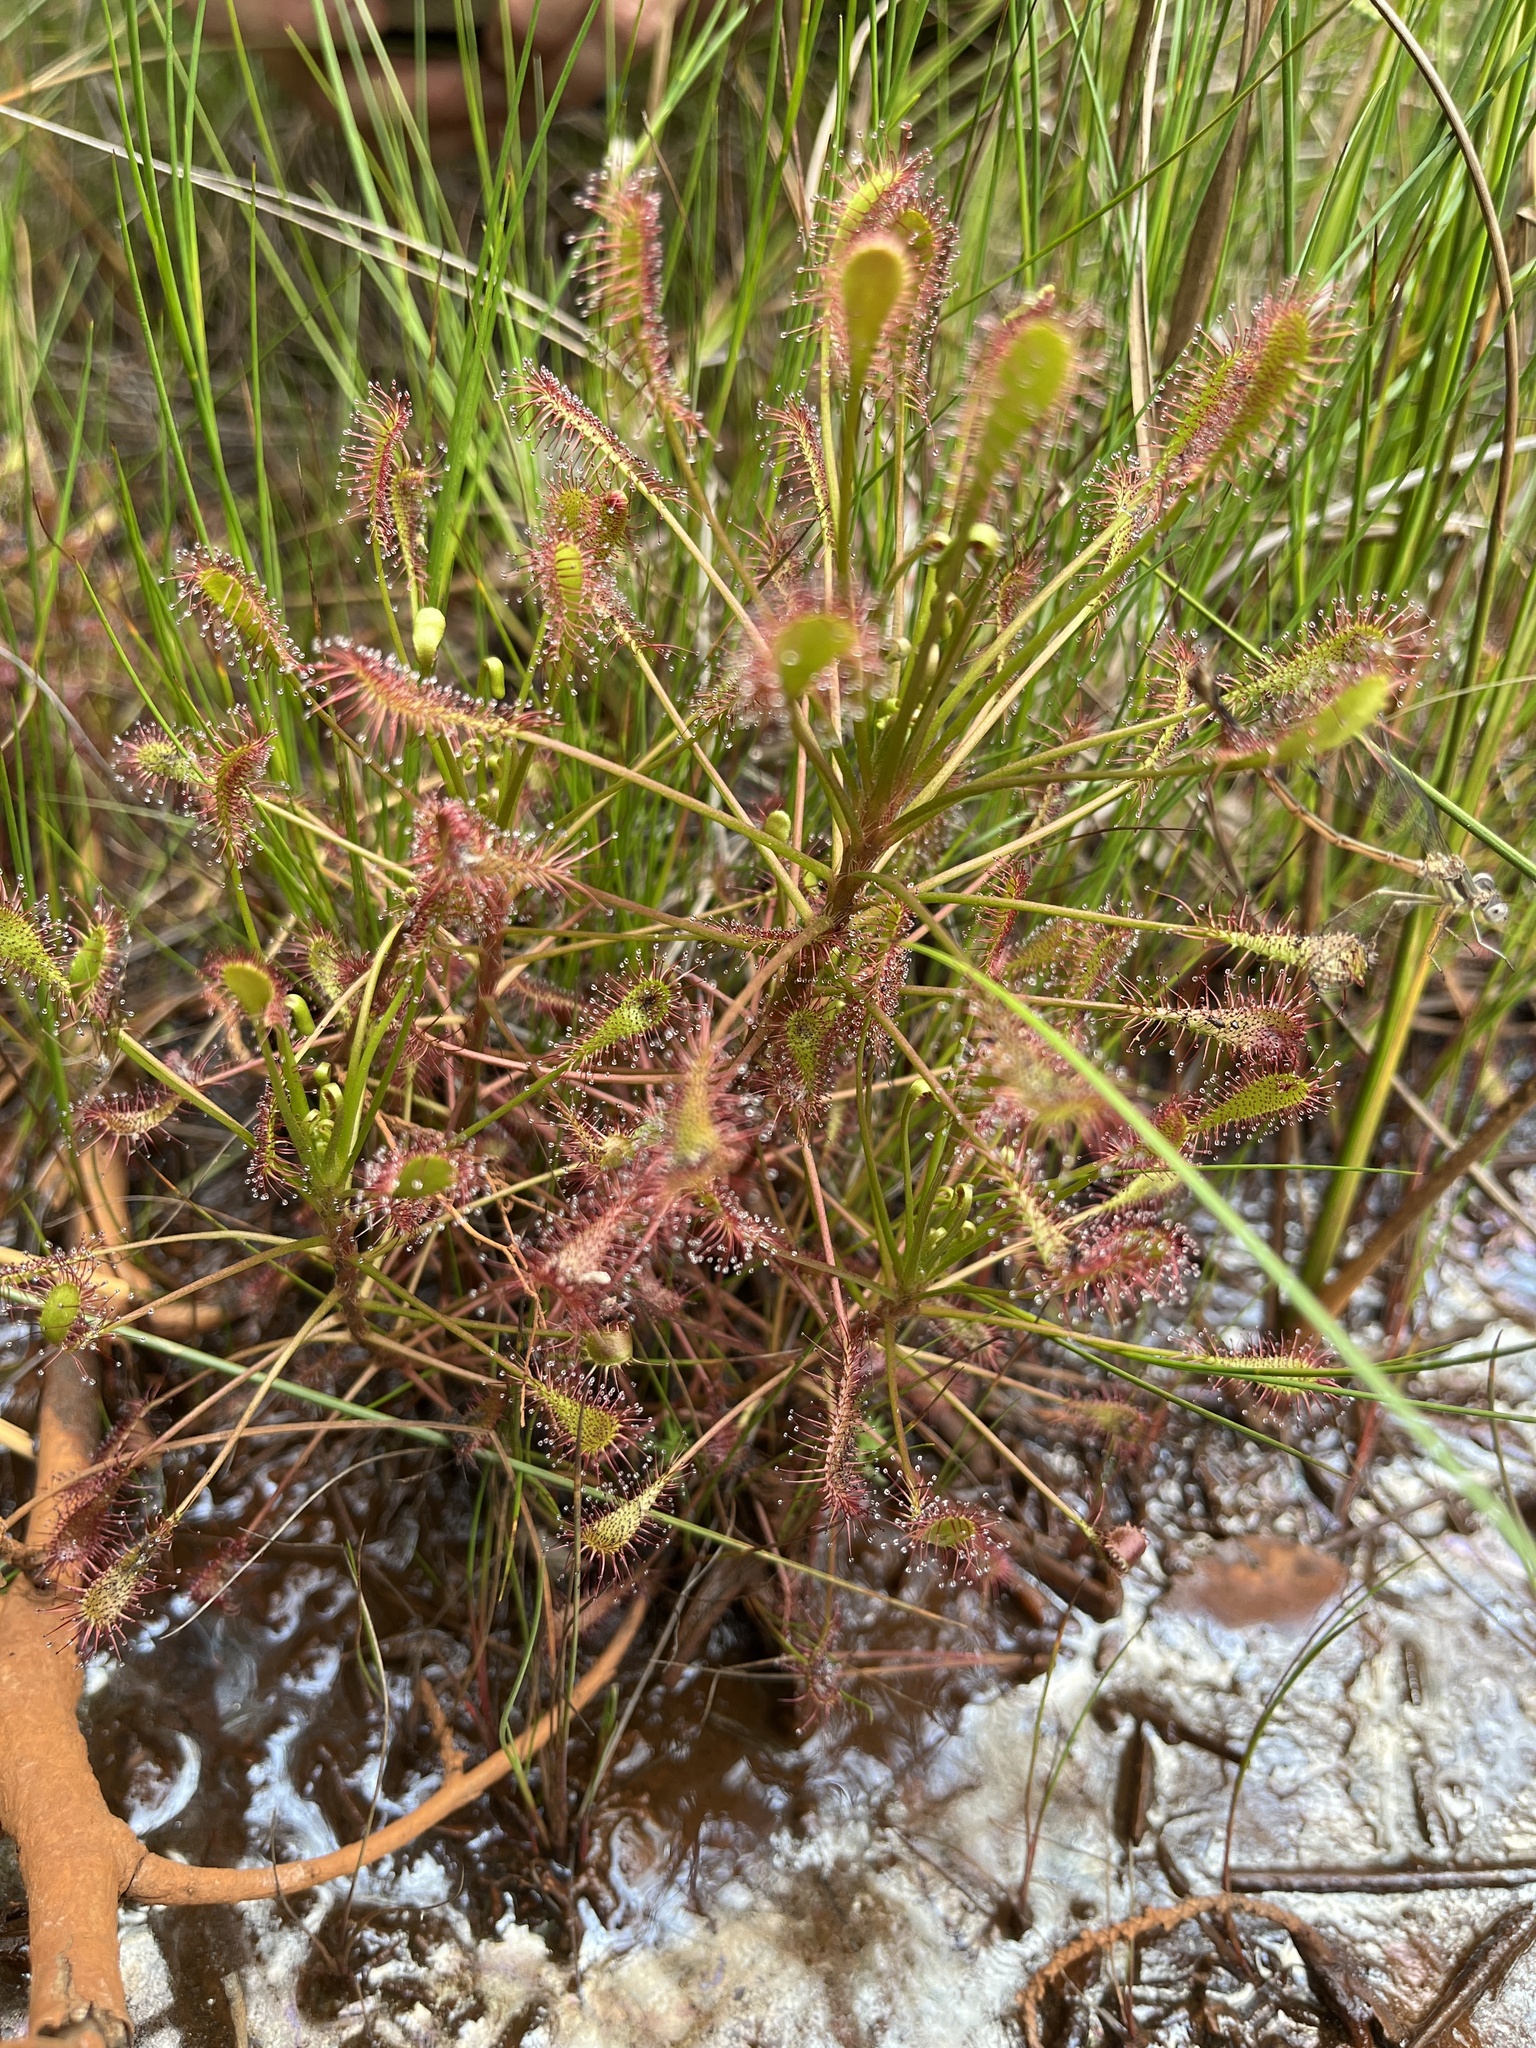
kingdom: Plantae
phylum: Tracheophyta
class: Magnoliopsida
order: Caryophyllales
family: Droseraceae
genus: Drosera
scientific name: Drosera intermedia
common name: Oblong-leaved sundew
